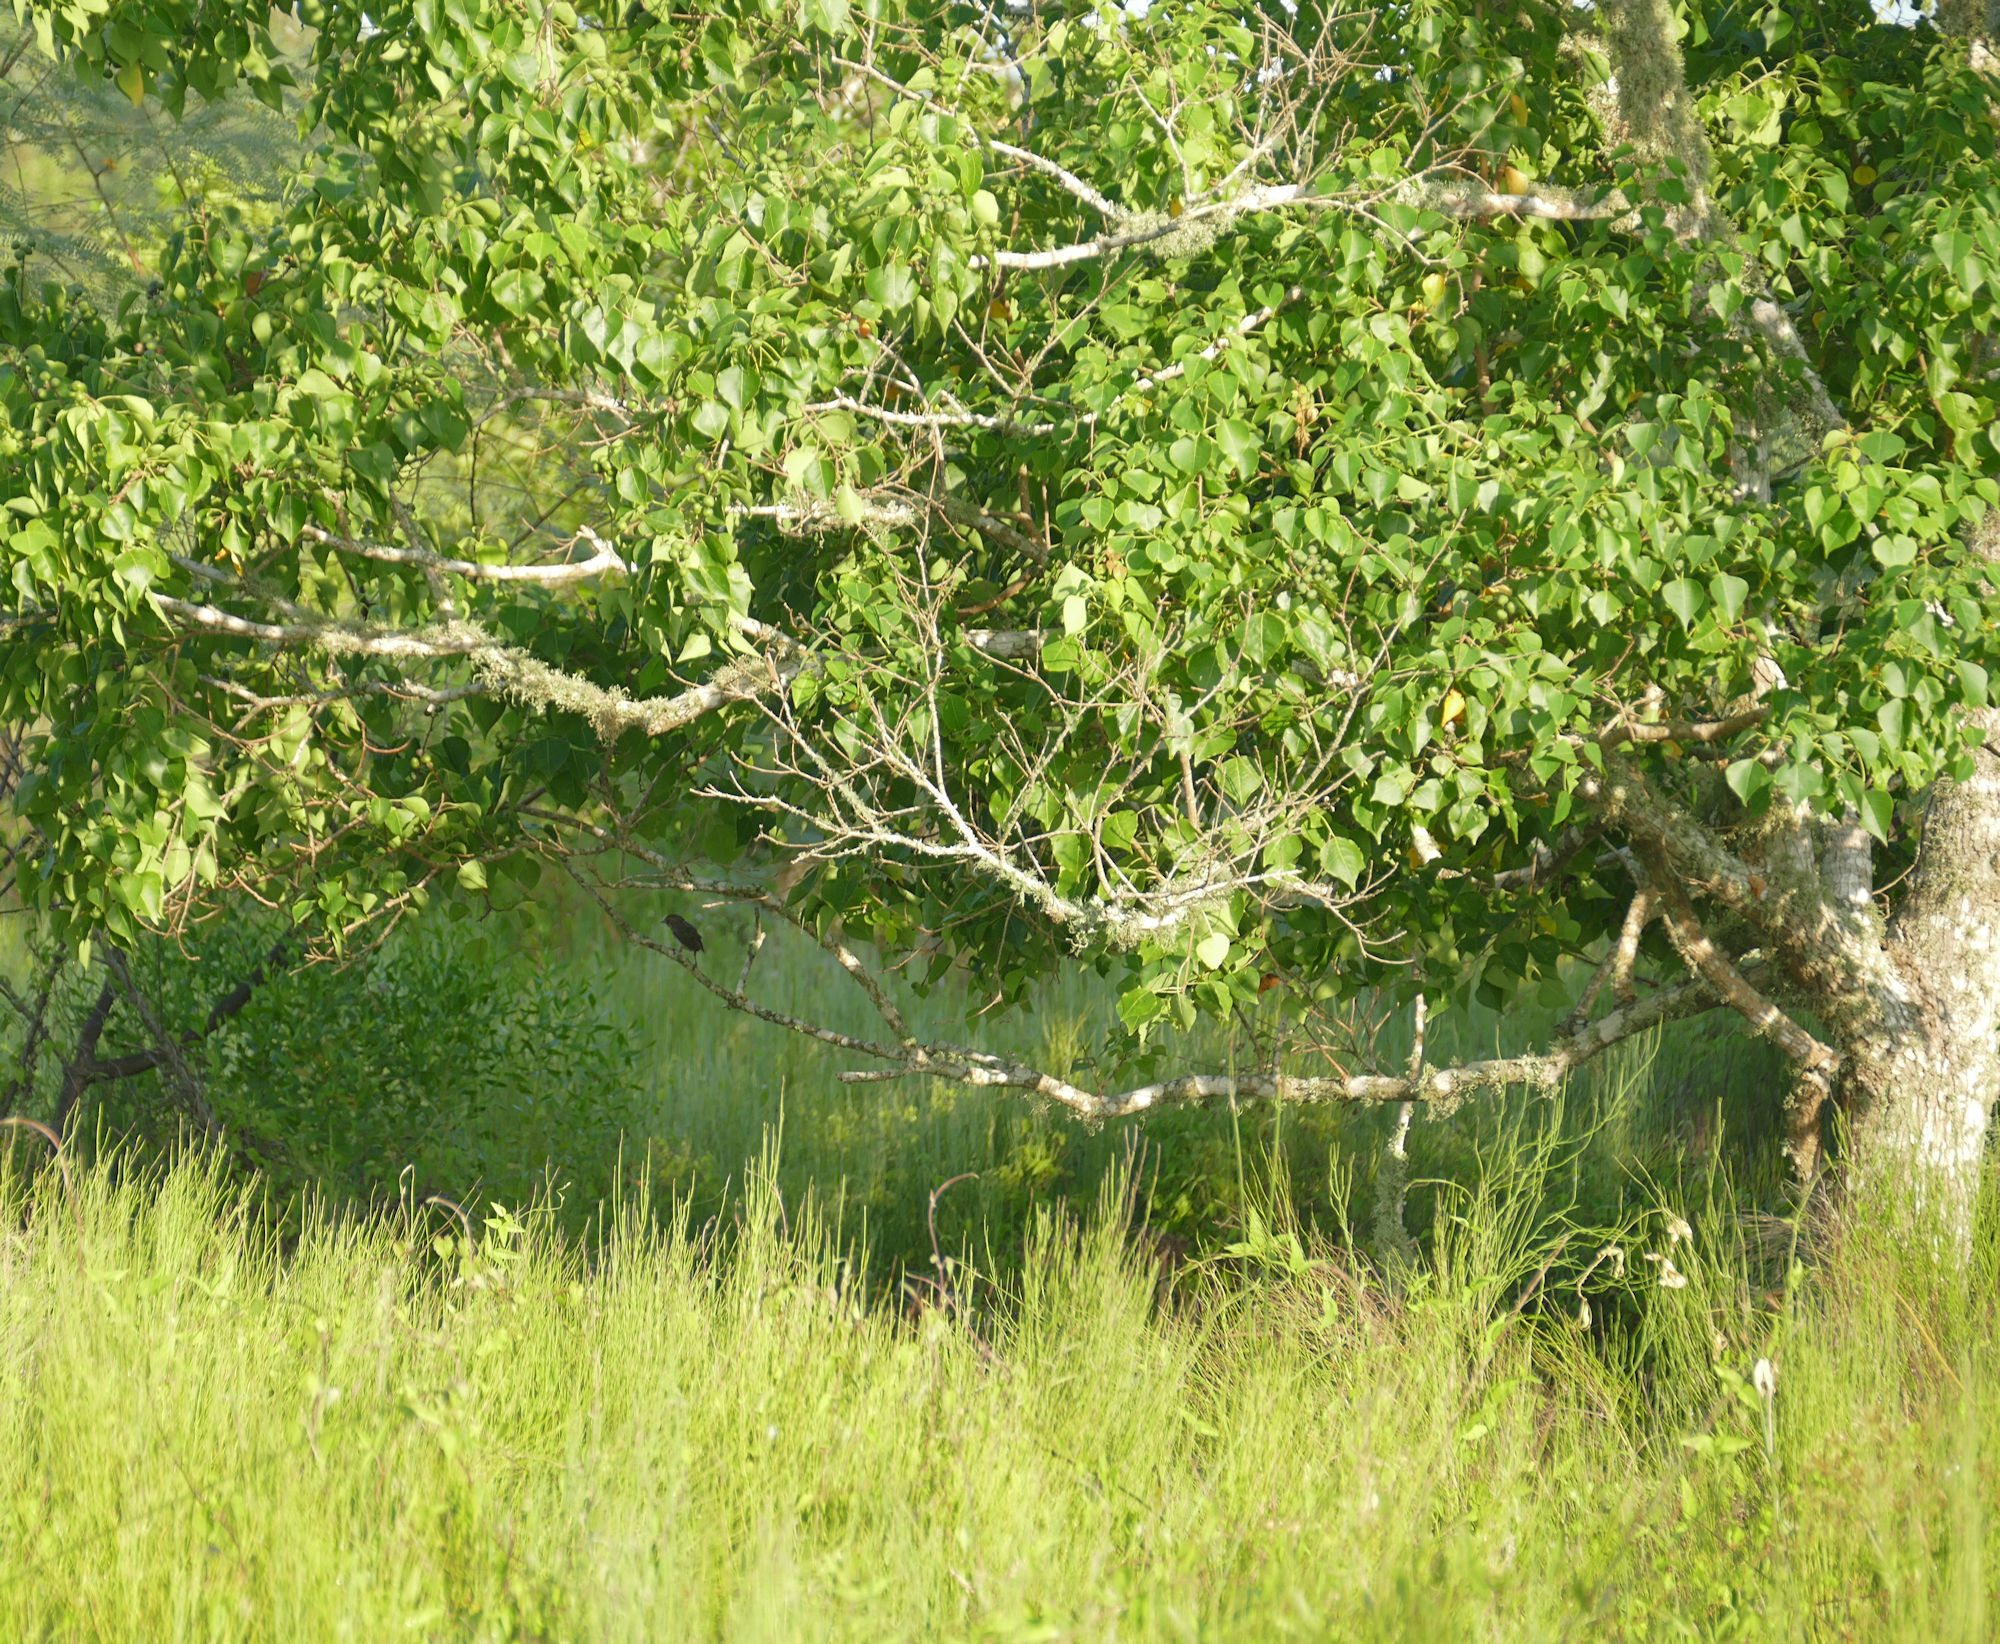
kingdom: Plantae
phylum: Tracheophyta
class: Magnoliopsida
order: Malpighiales
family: Euphorbiaceae
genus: Triadica
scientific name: Triadica sebifera
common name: Chinese tallow
